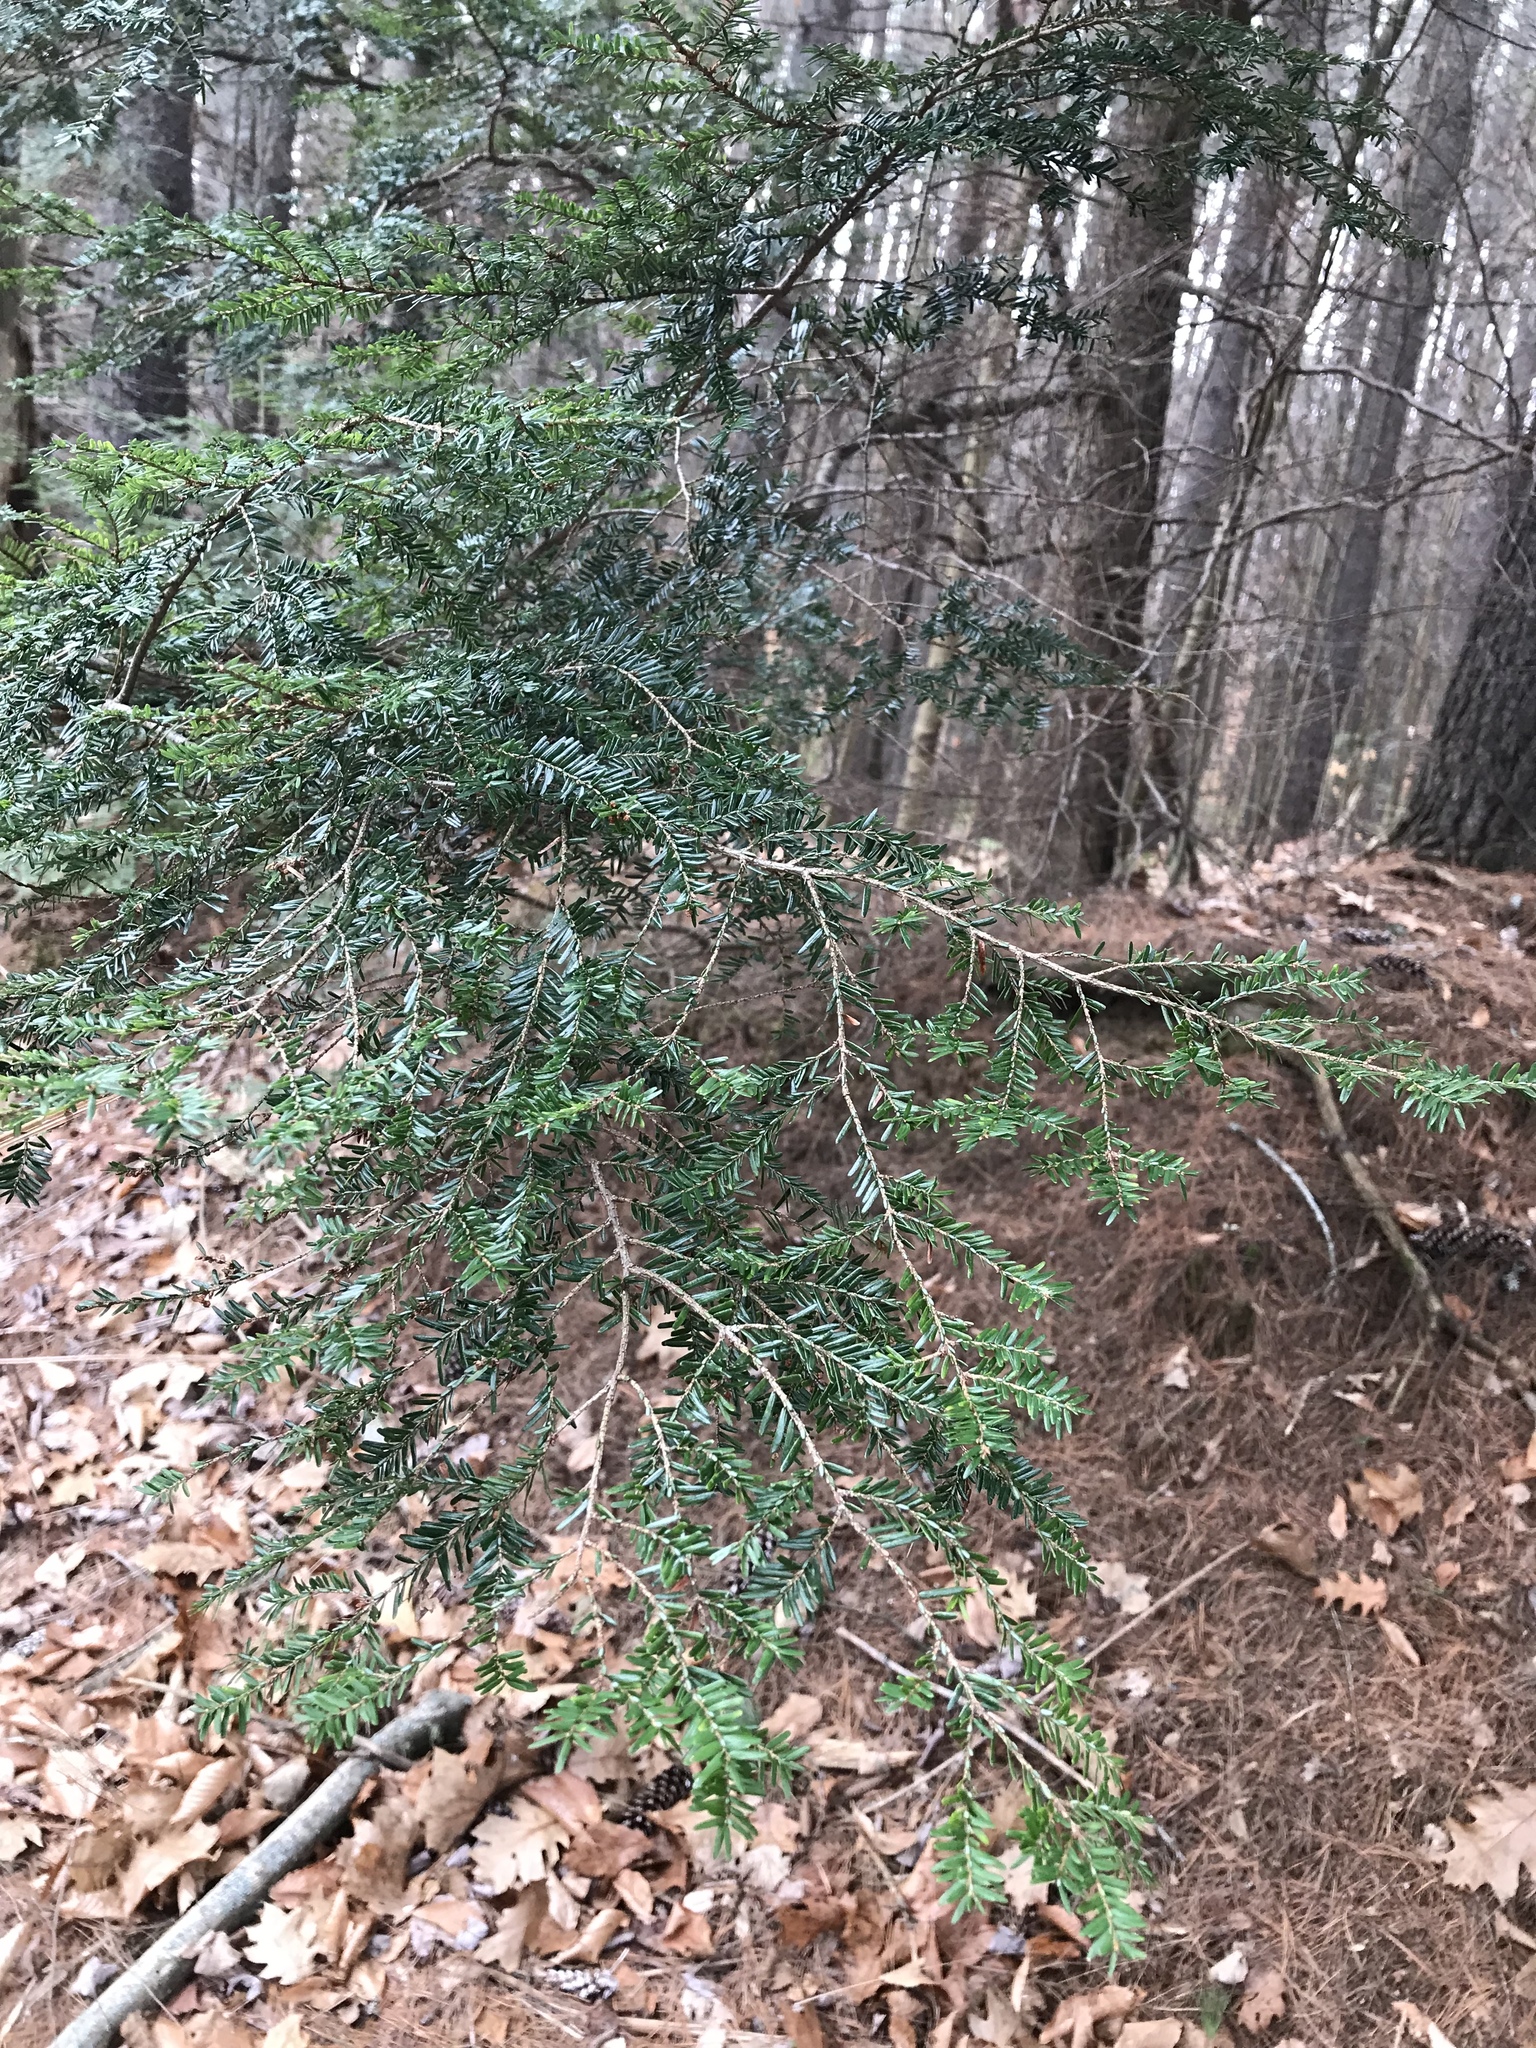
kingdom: Plantae
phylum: Tracheophyta
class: Pinopsida
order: Pinales
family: Pinaceae
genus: Tsuga
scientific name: Tsuga canadensis
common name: Eastern hemlock
